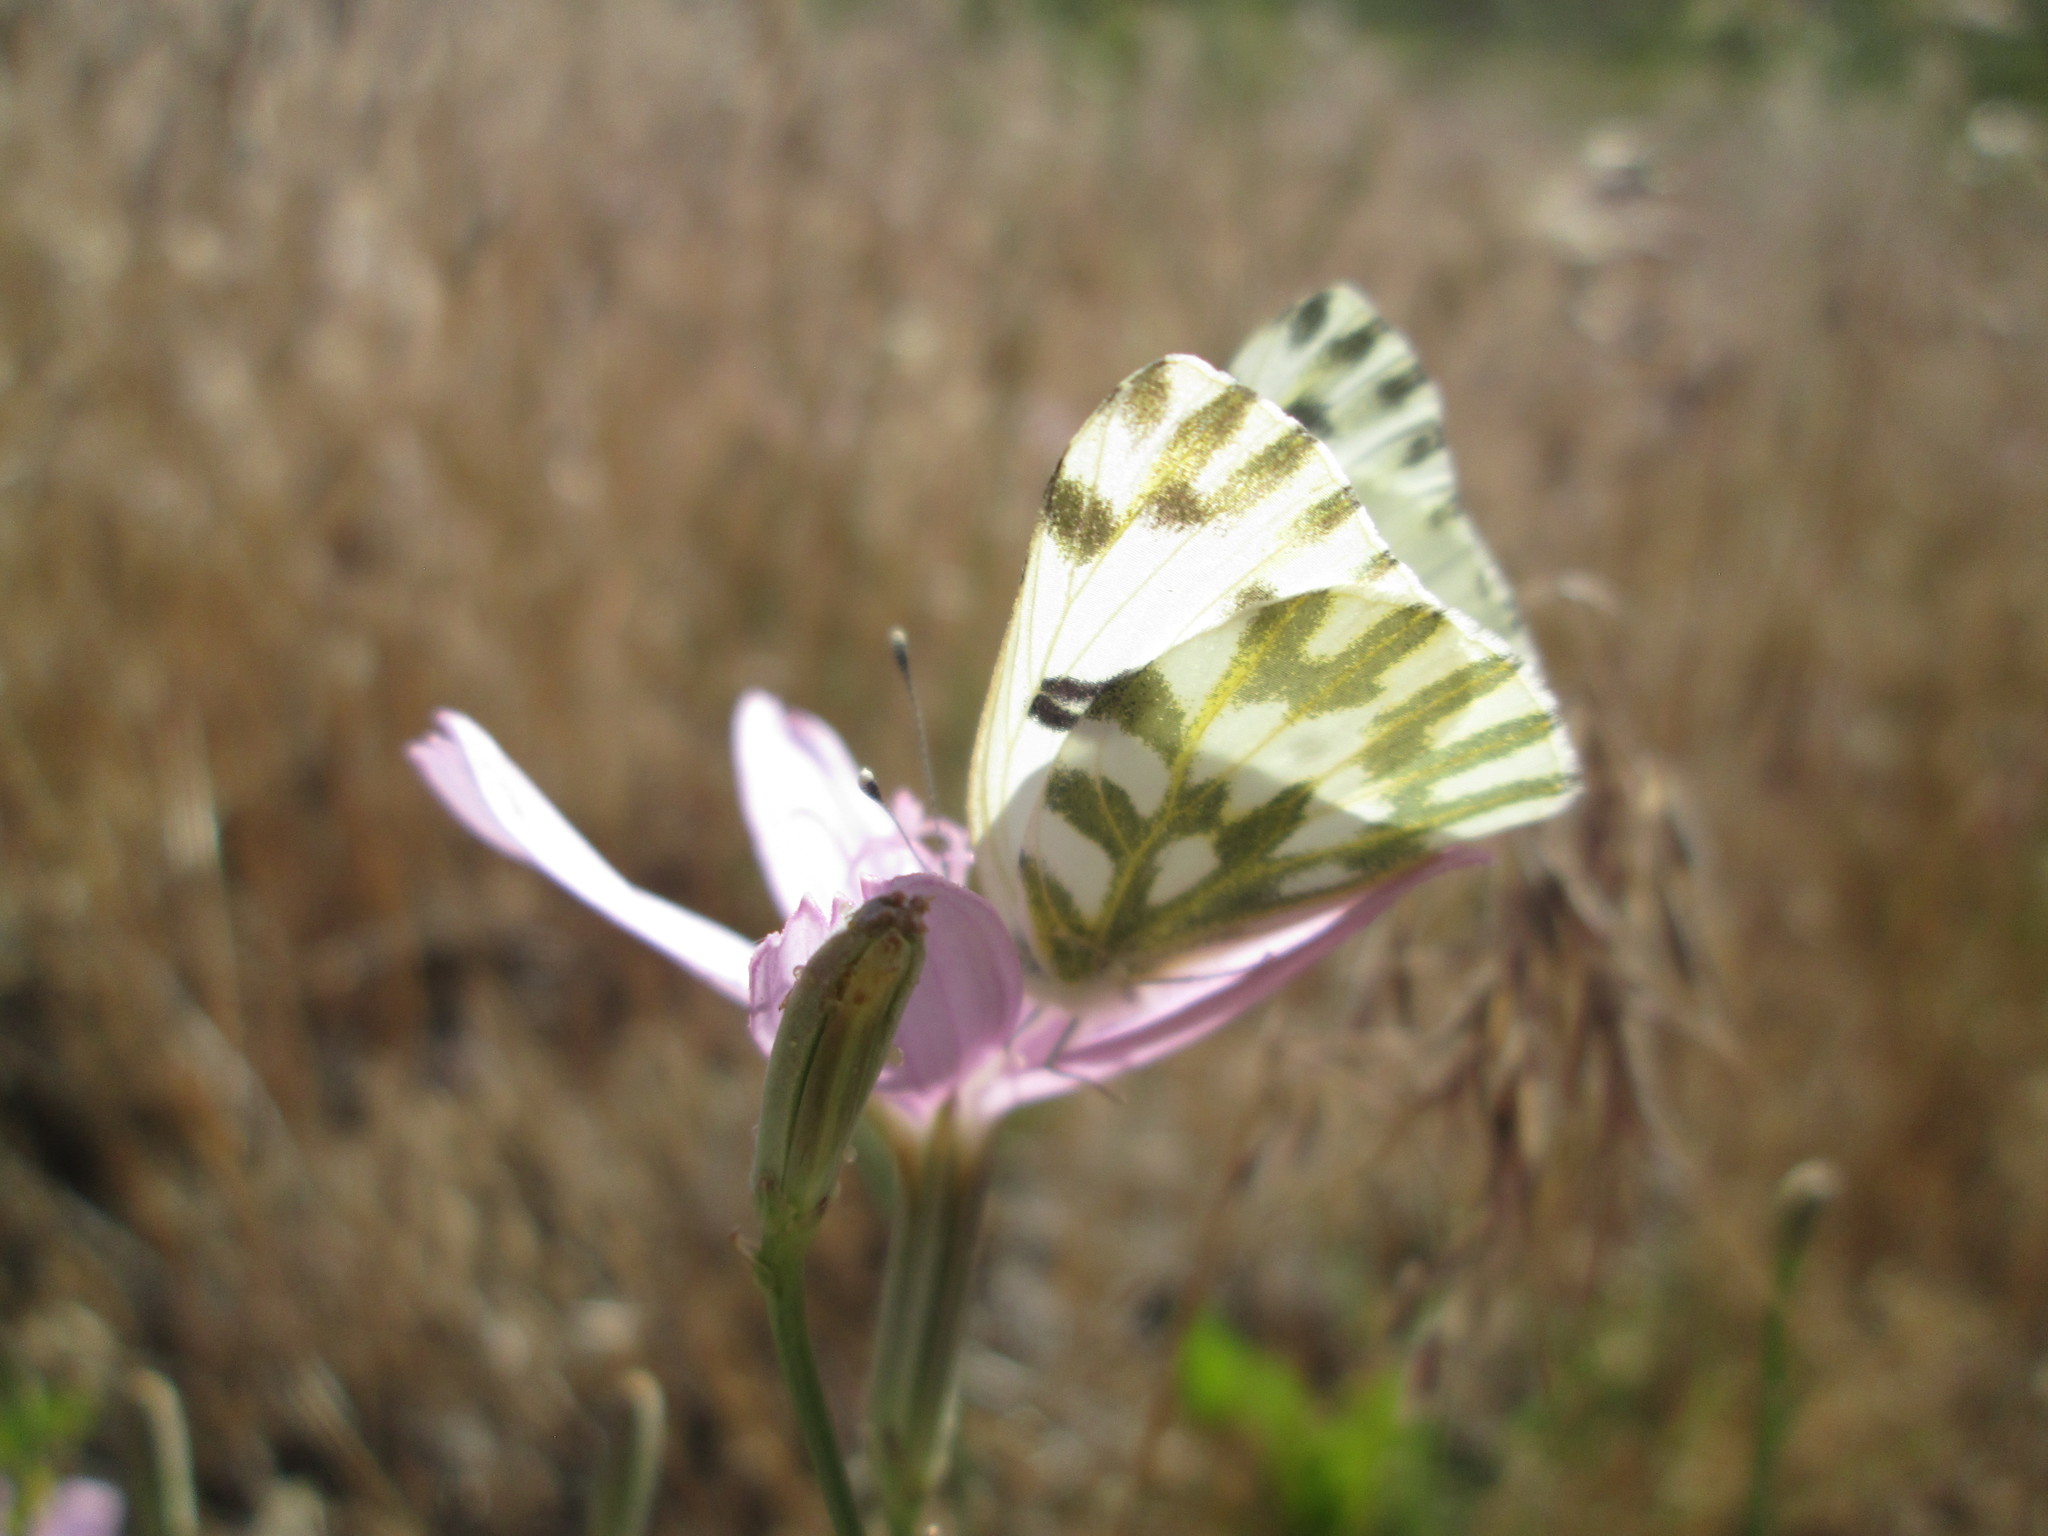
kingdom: Animalia
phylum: Arthropoda
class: Insecta
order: Lepidoptera
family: Pieridae
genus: Pontia
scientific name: Pontia beckerii
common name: Becker's white
